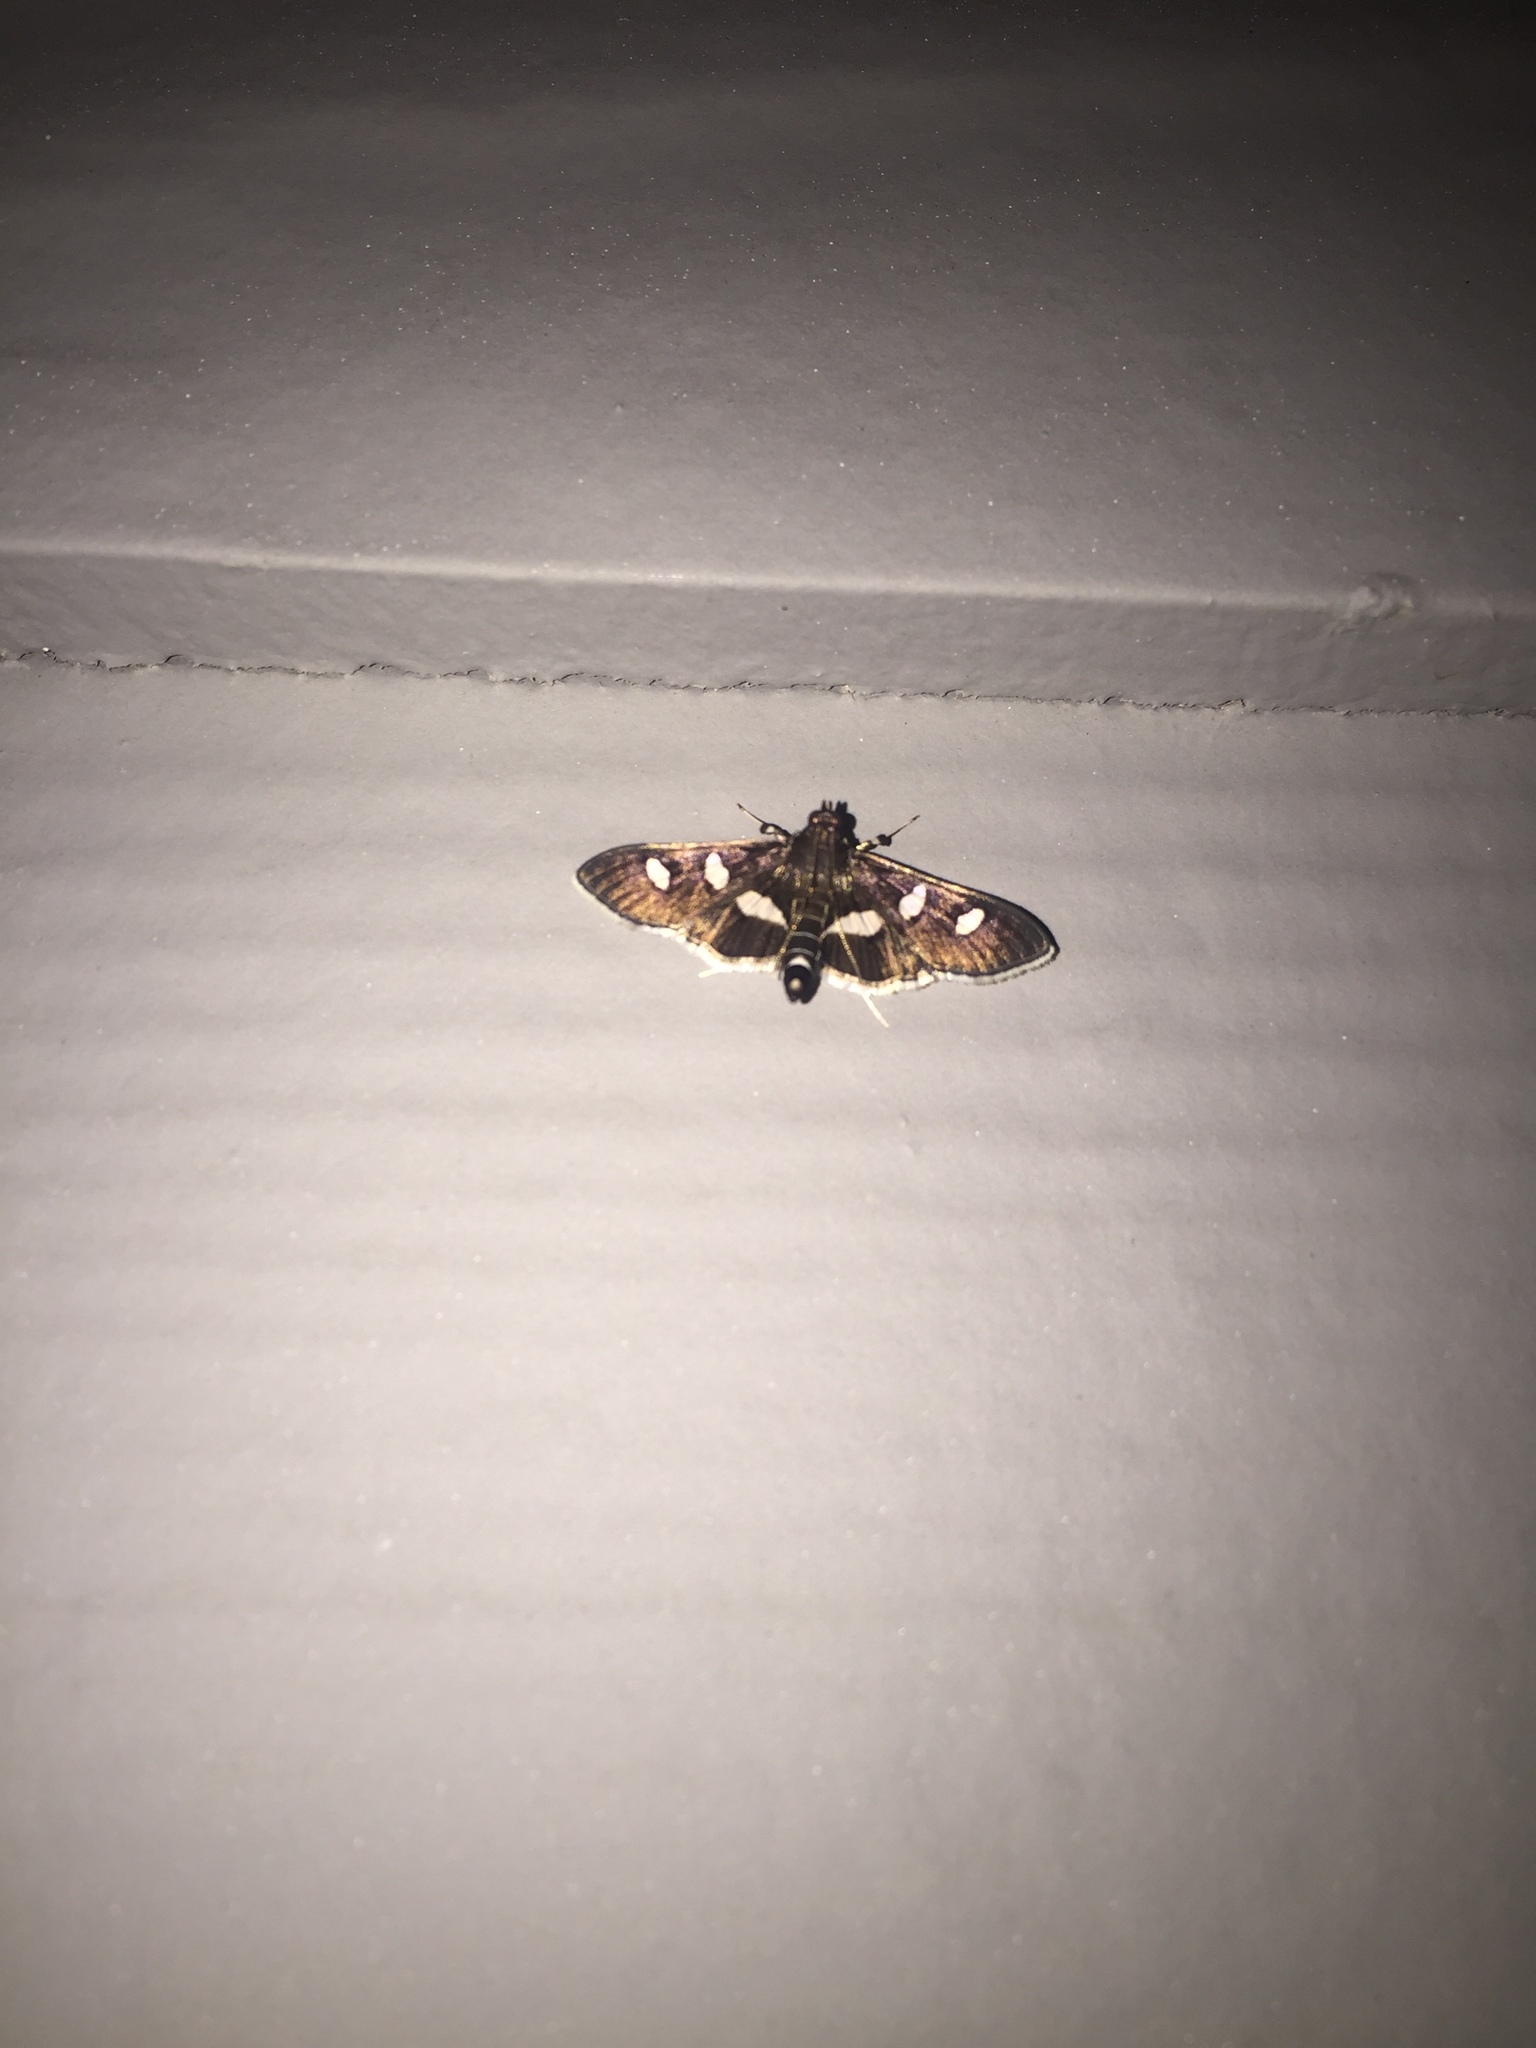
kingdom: Animalia
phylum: Arthropoda
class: Insecta
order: Lepidoptera
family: Crambidae
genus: Desmia
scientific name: Desmia funeralis
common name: Grape leaf folder moth
